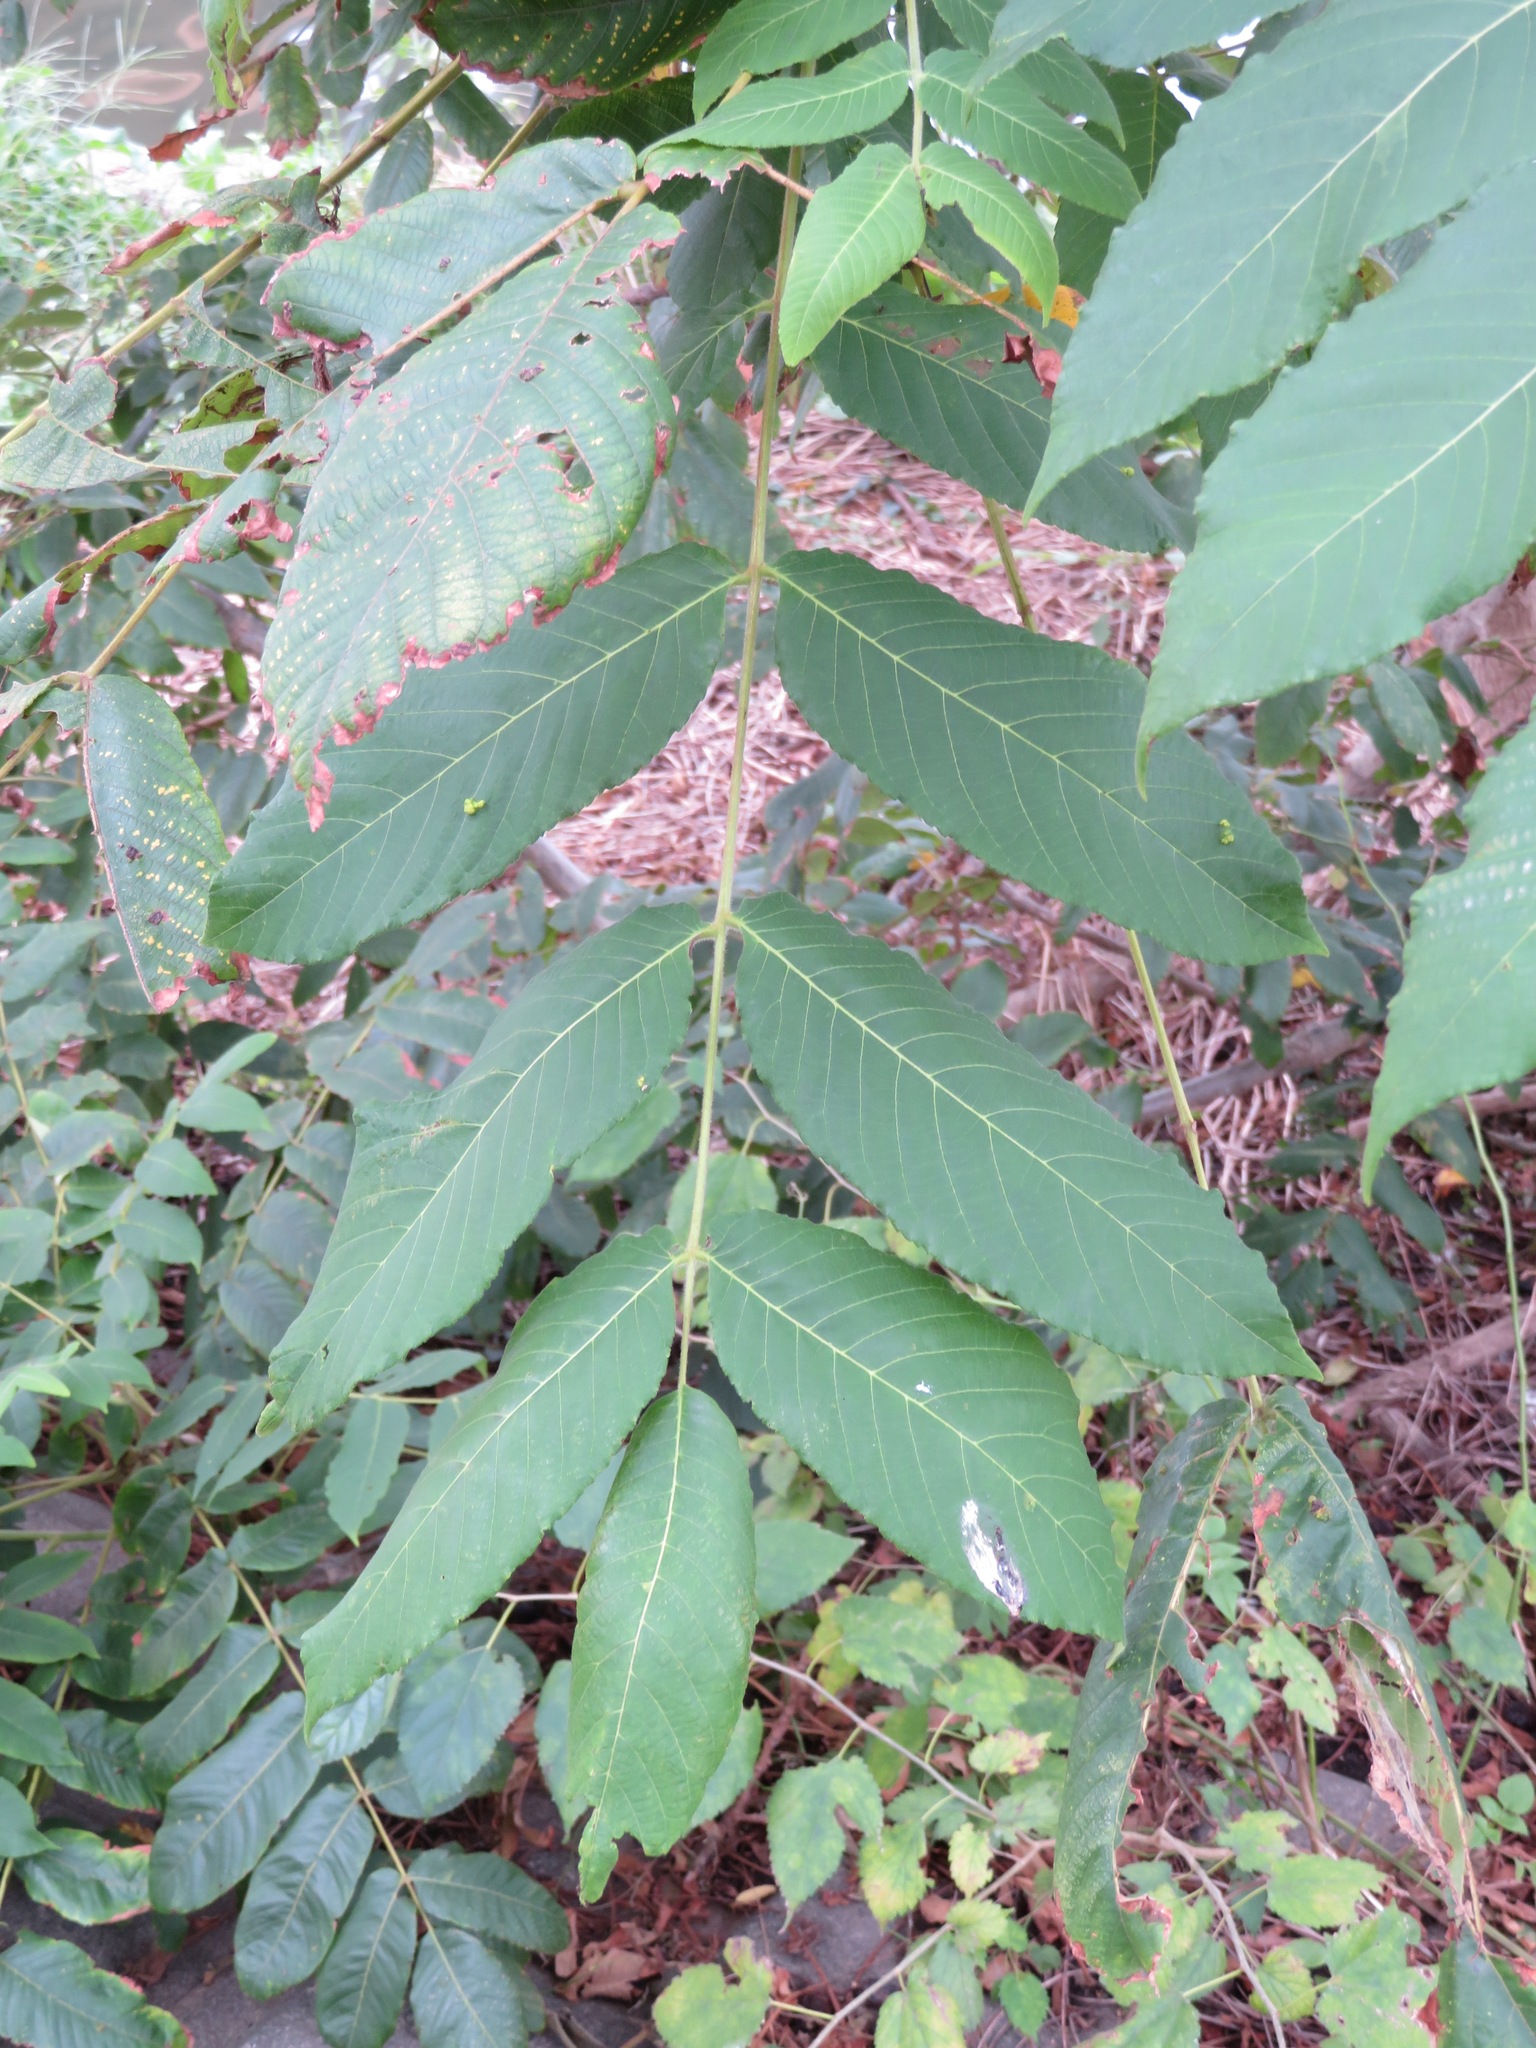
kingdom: Plantae
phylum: Tracheophyta
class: Magnoliopsida
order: Fagales
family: Juglandaceae
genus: Juglans
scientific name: Juglans ailantifolia
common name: Japanese walnut
